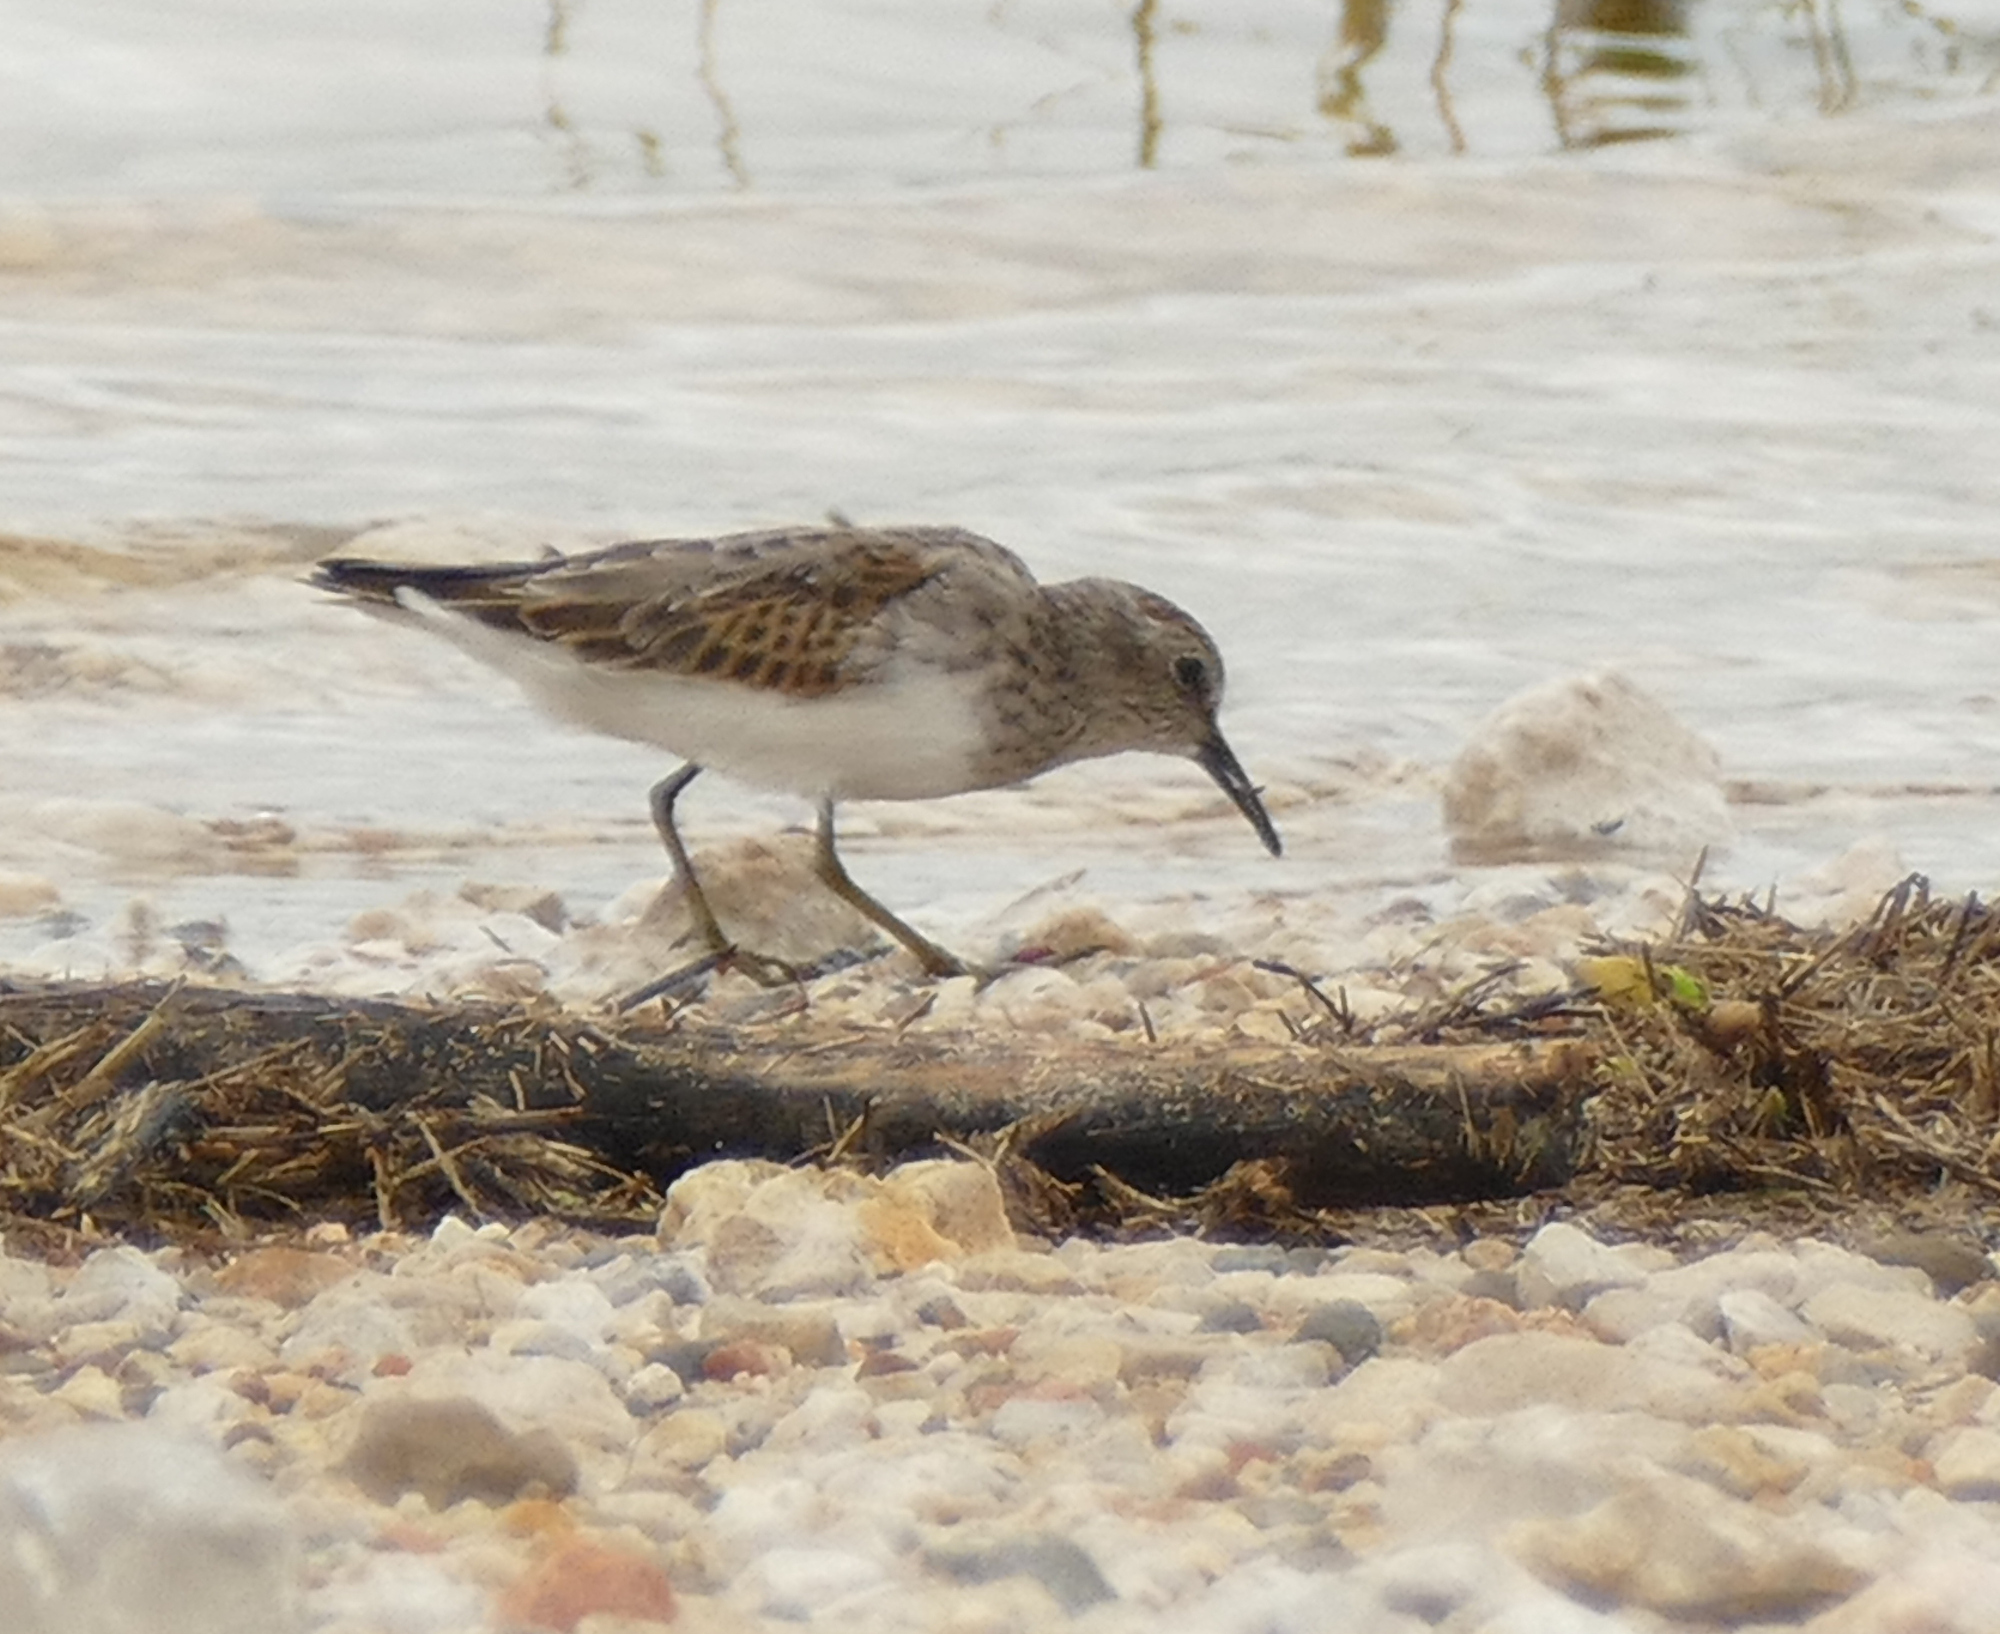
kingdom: Animalia
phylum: Chordata
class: Aves
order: Charadriiformes
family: Scolopacidae
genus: Calidris
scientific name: Calidris minutilla
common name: Least sandpiper
